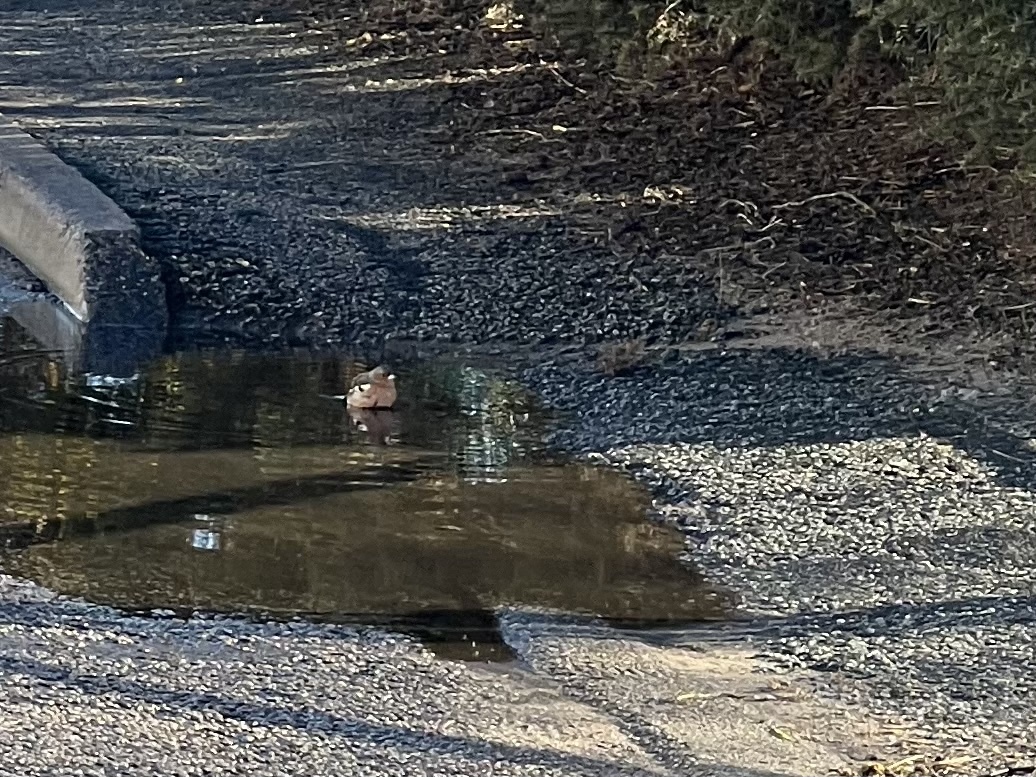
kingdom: Animalia
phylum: Chordata
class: Aves
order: Passeriformes
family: Fringillidae
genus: Fringilla
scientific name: Fringilla coelebs
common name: Common chaffinch
